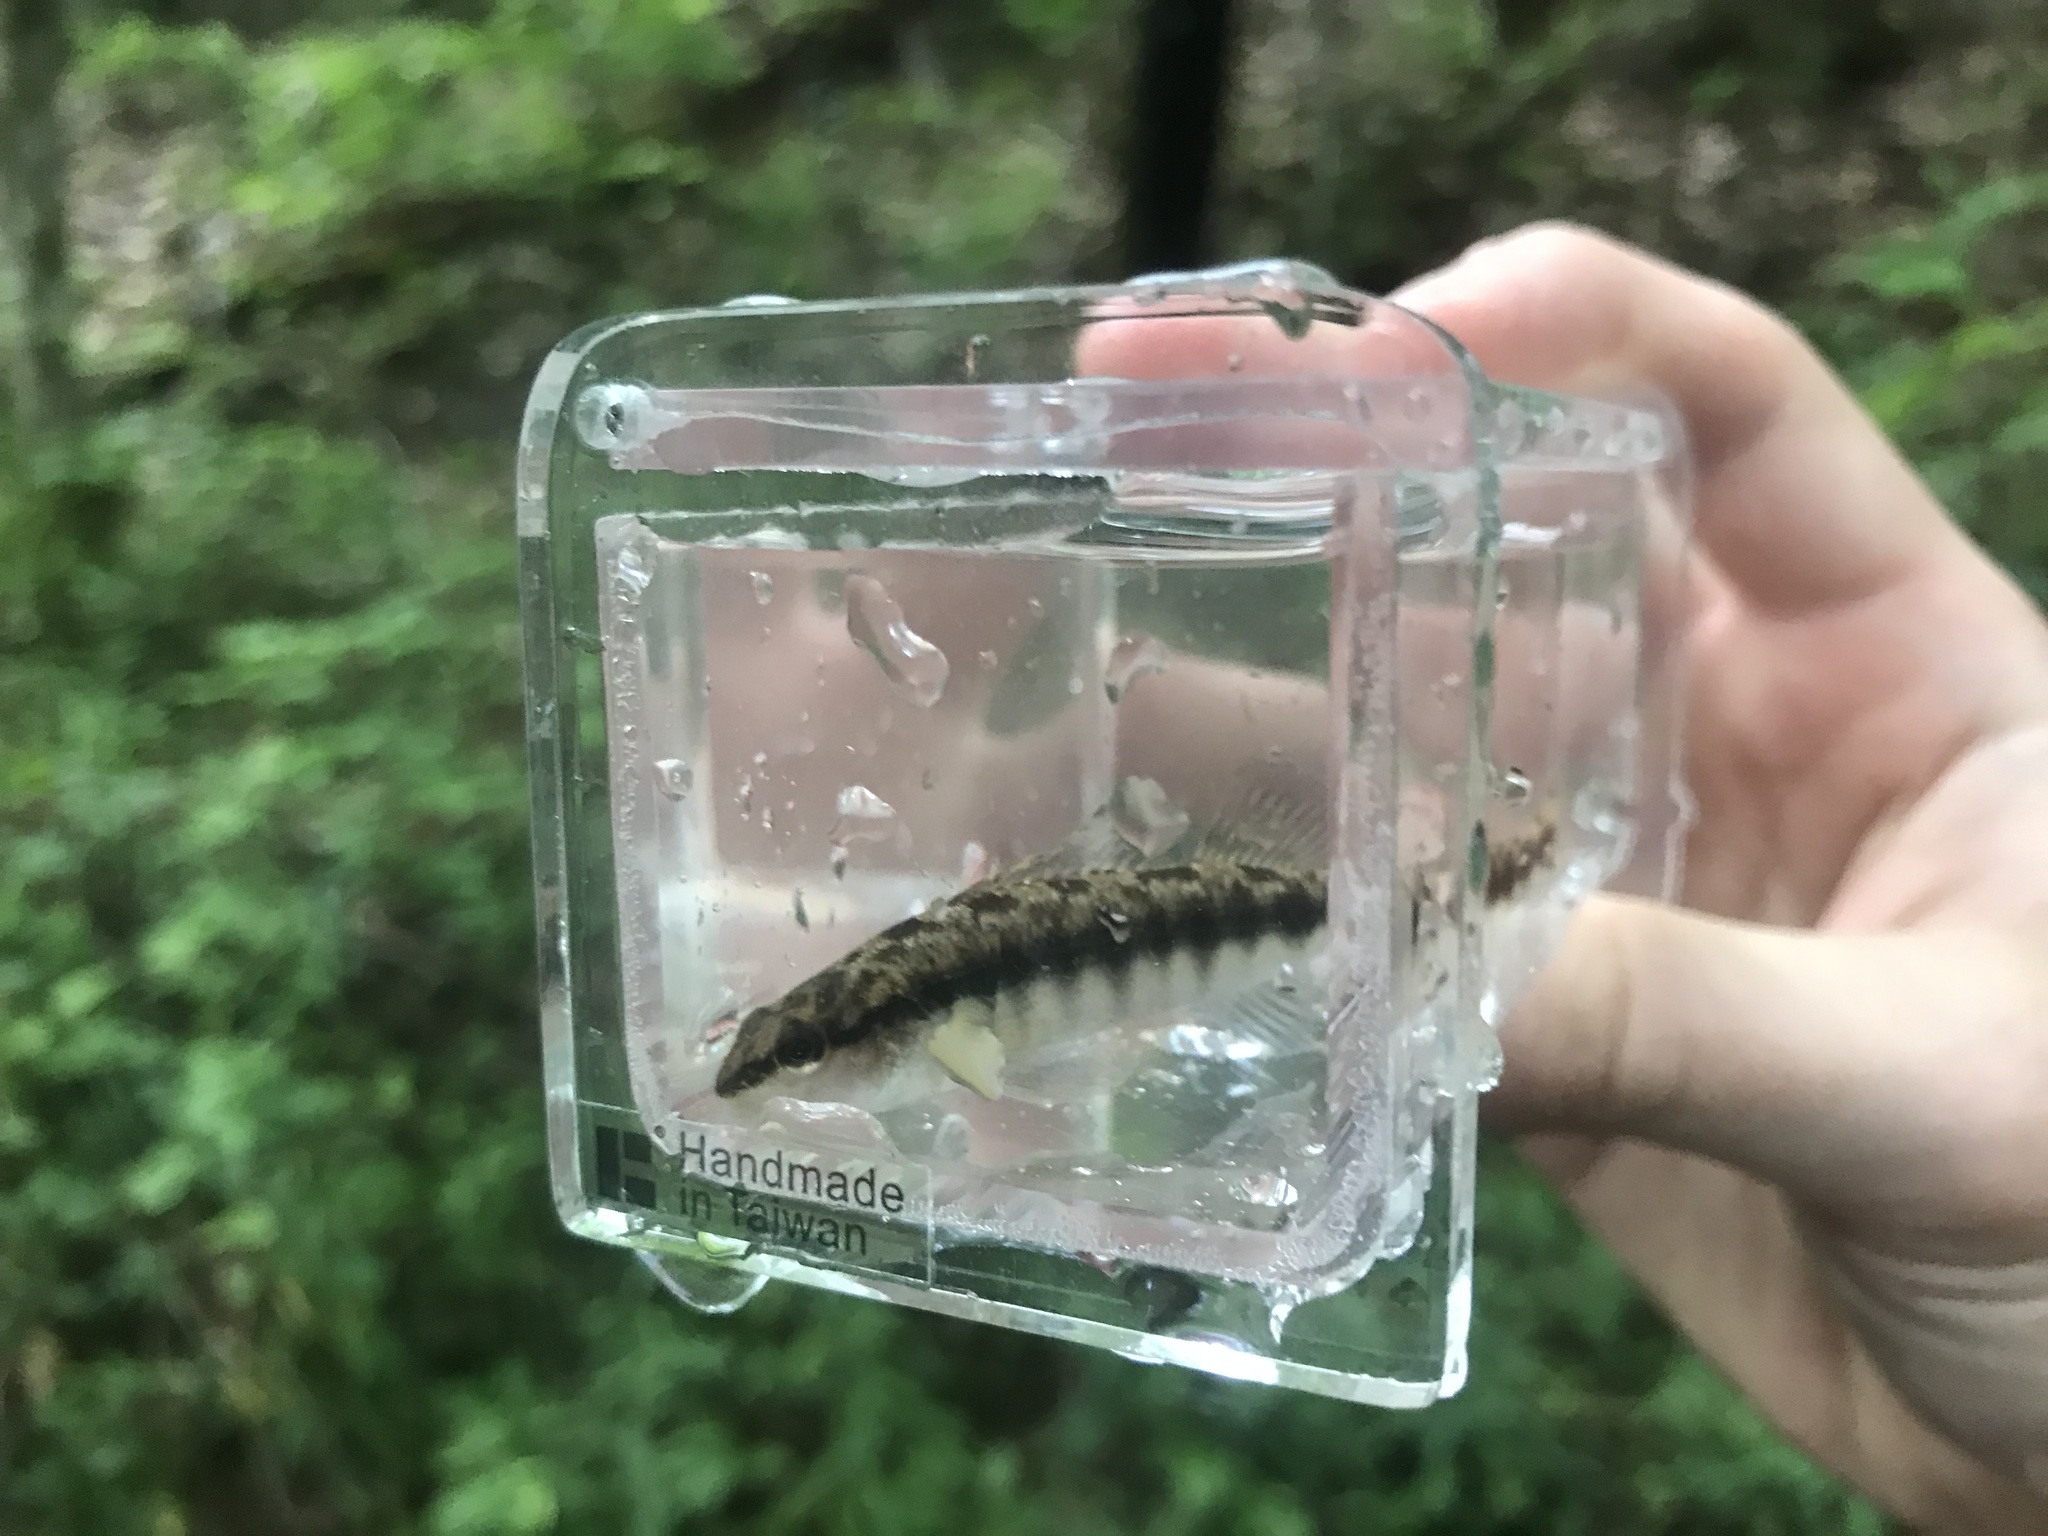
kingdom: Animalia
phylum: Chordata
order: Perciformes
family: Percidae
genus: Percina
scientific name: Percina nigrofasciata
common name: Blackbanded darter
